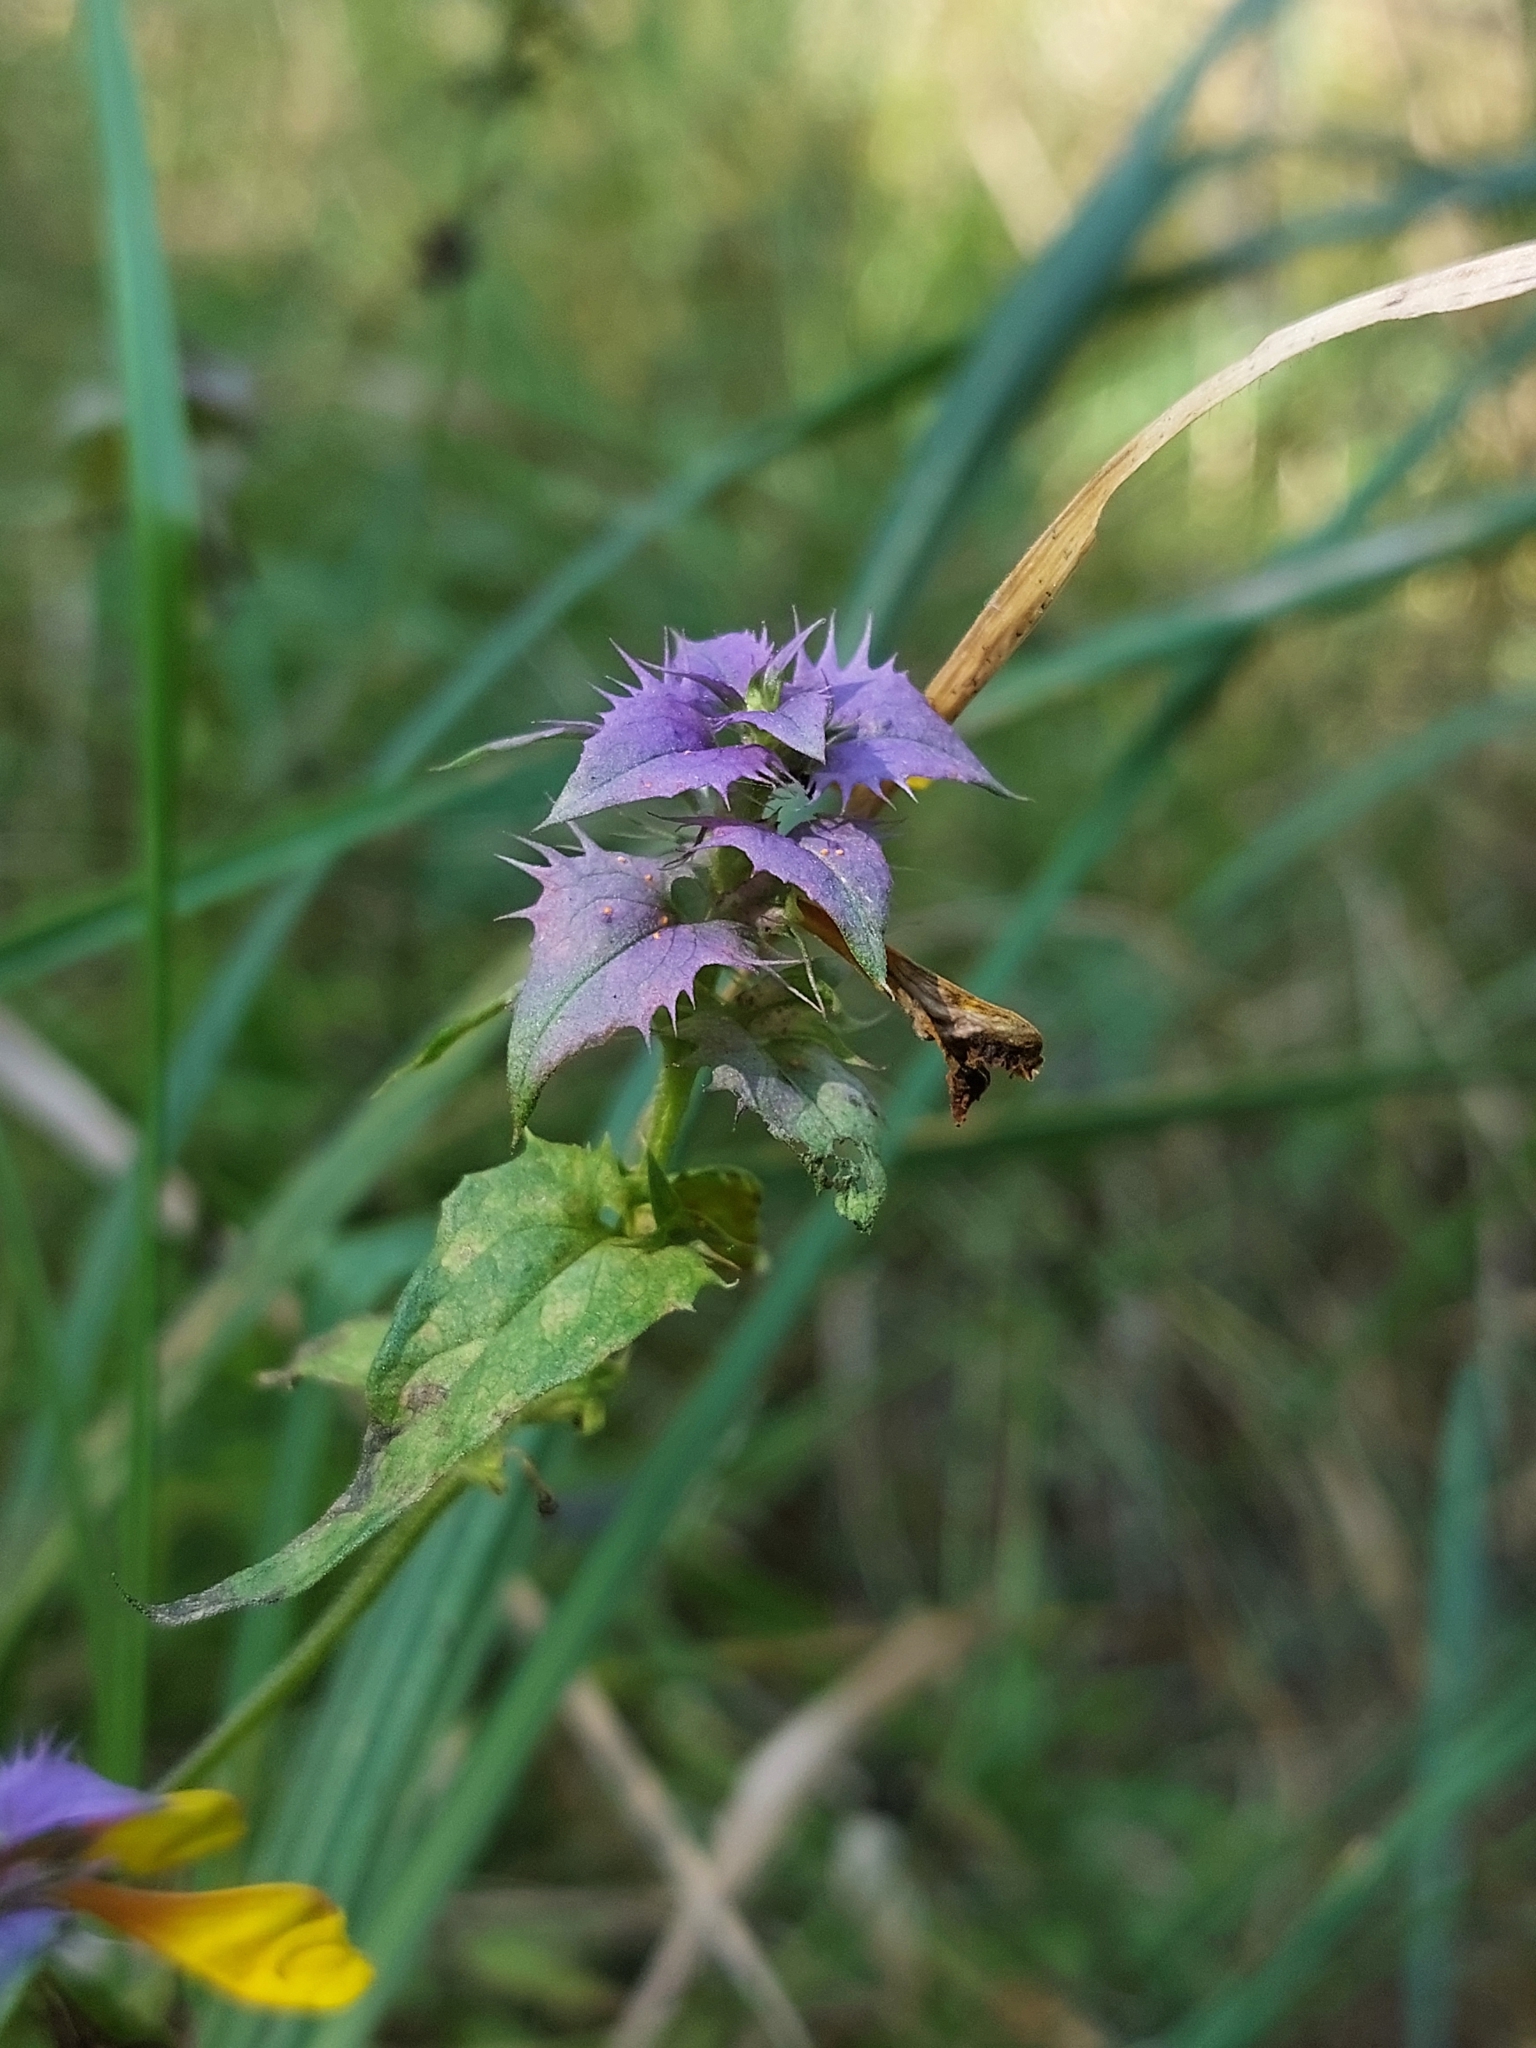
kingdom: Plantae
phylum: Tracheophyta
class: Magnoliopsida
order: Lamiales
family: Orobanchaceae
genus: Melampyrum
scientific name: Melampyrum nemorosum
